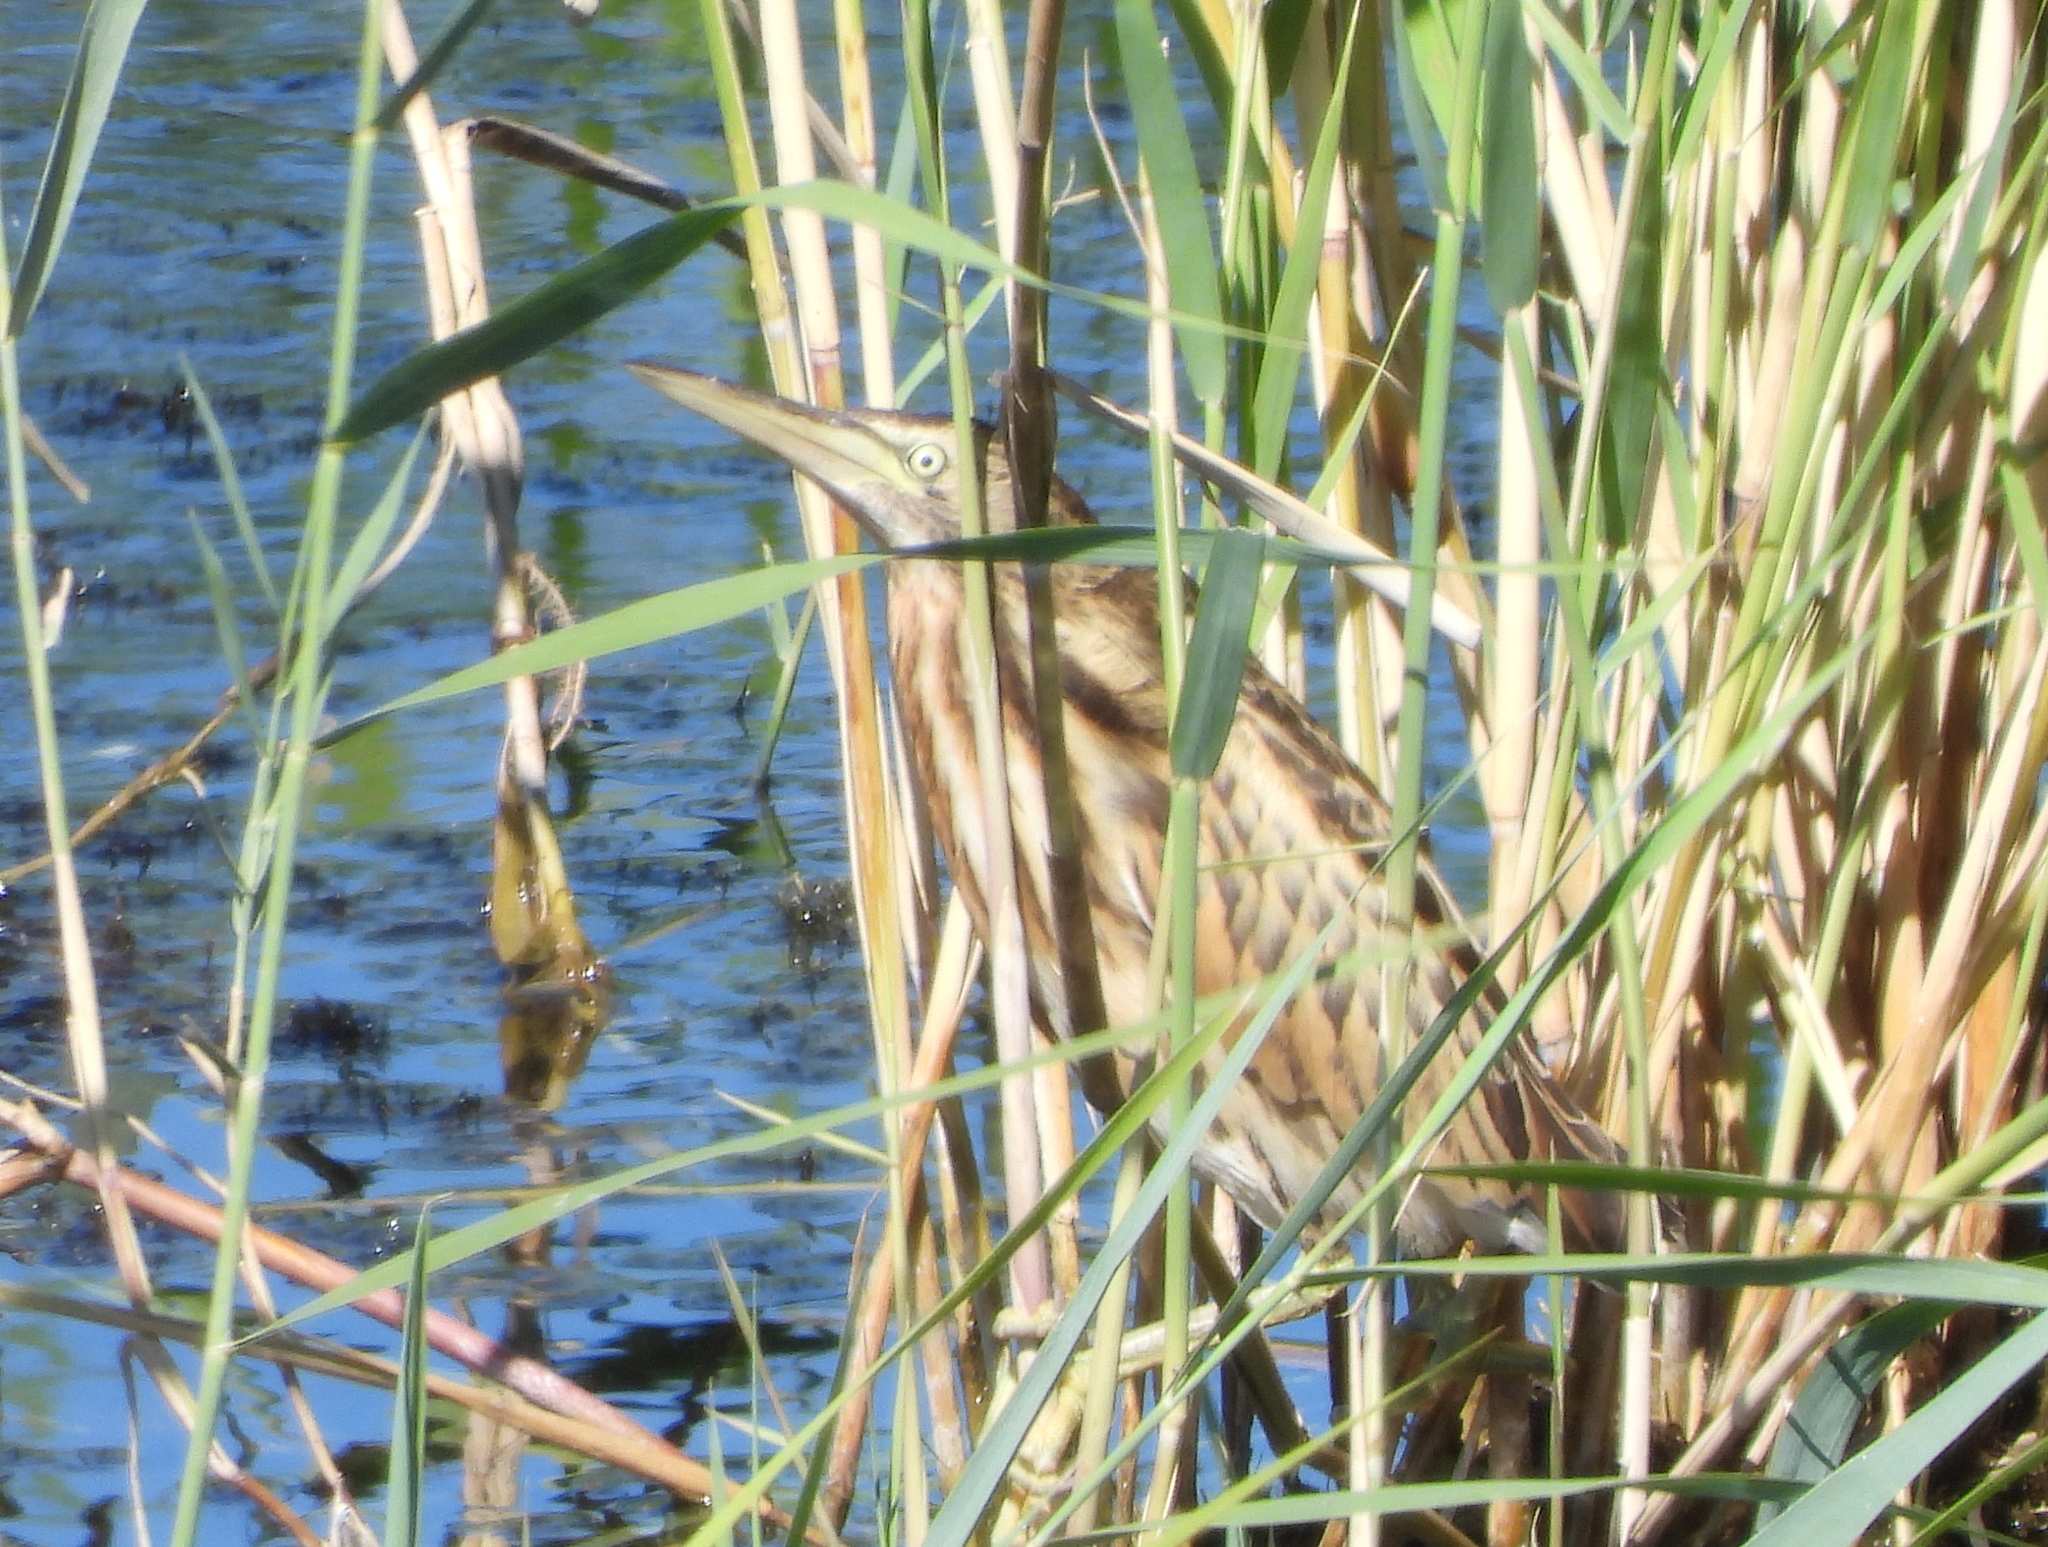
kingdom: Animalia
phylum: Chordata
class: Aves
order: Pelecaniformes
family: Ardeidae
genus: Botaurus
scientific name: Botaurus stellaris
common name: Eurasian bittern
